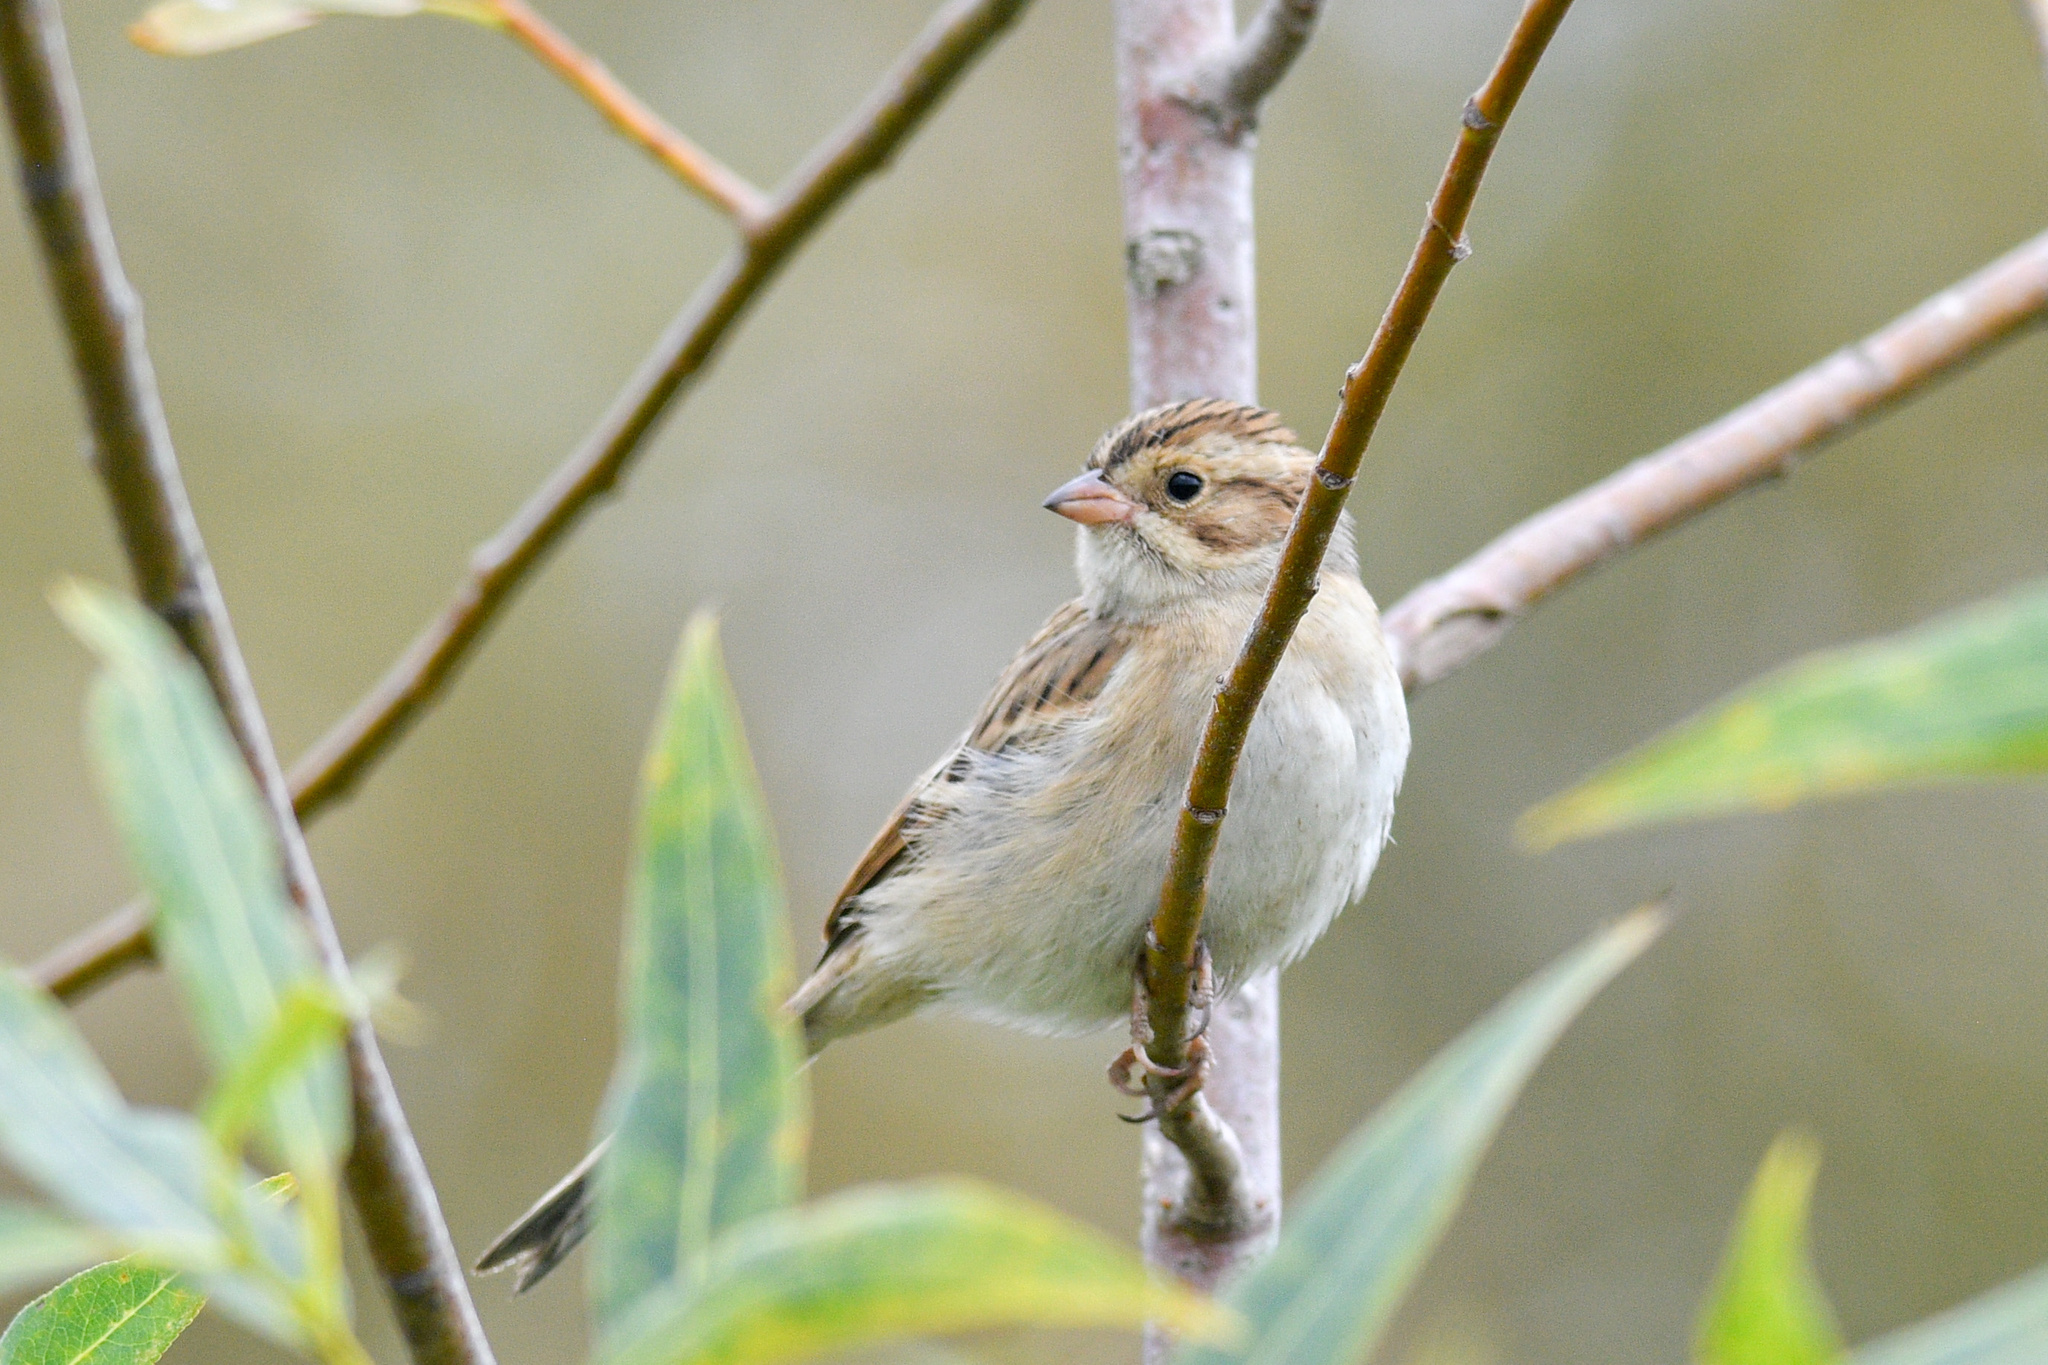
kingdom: Animalia
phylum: Chordata
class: Aves
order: Passeriformes
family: Passerellidae
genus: Spizella
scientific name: Spizella pallida
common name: Clay-colored sparrow
